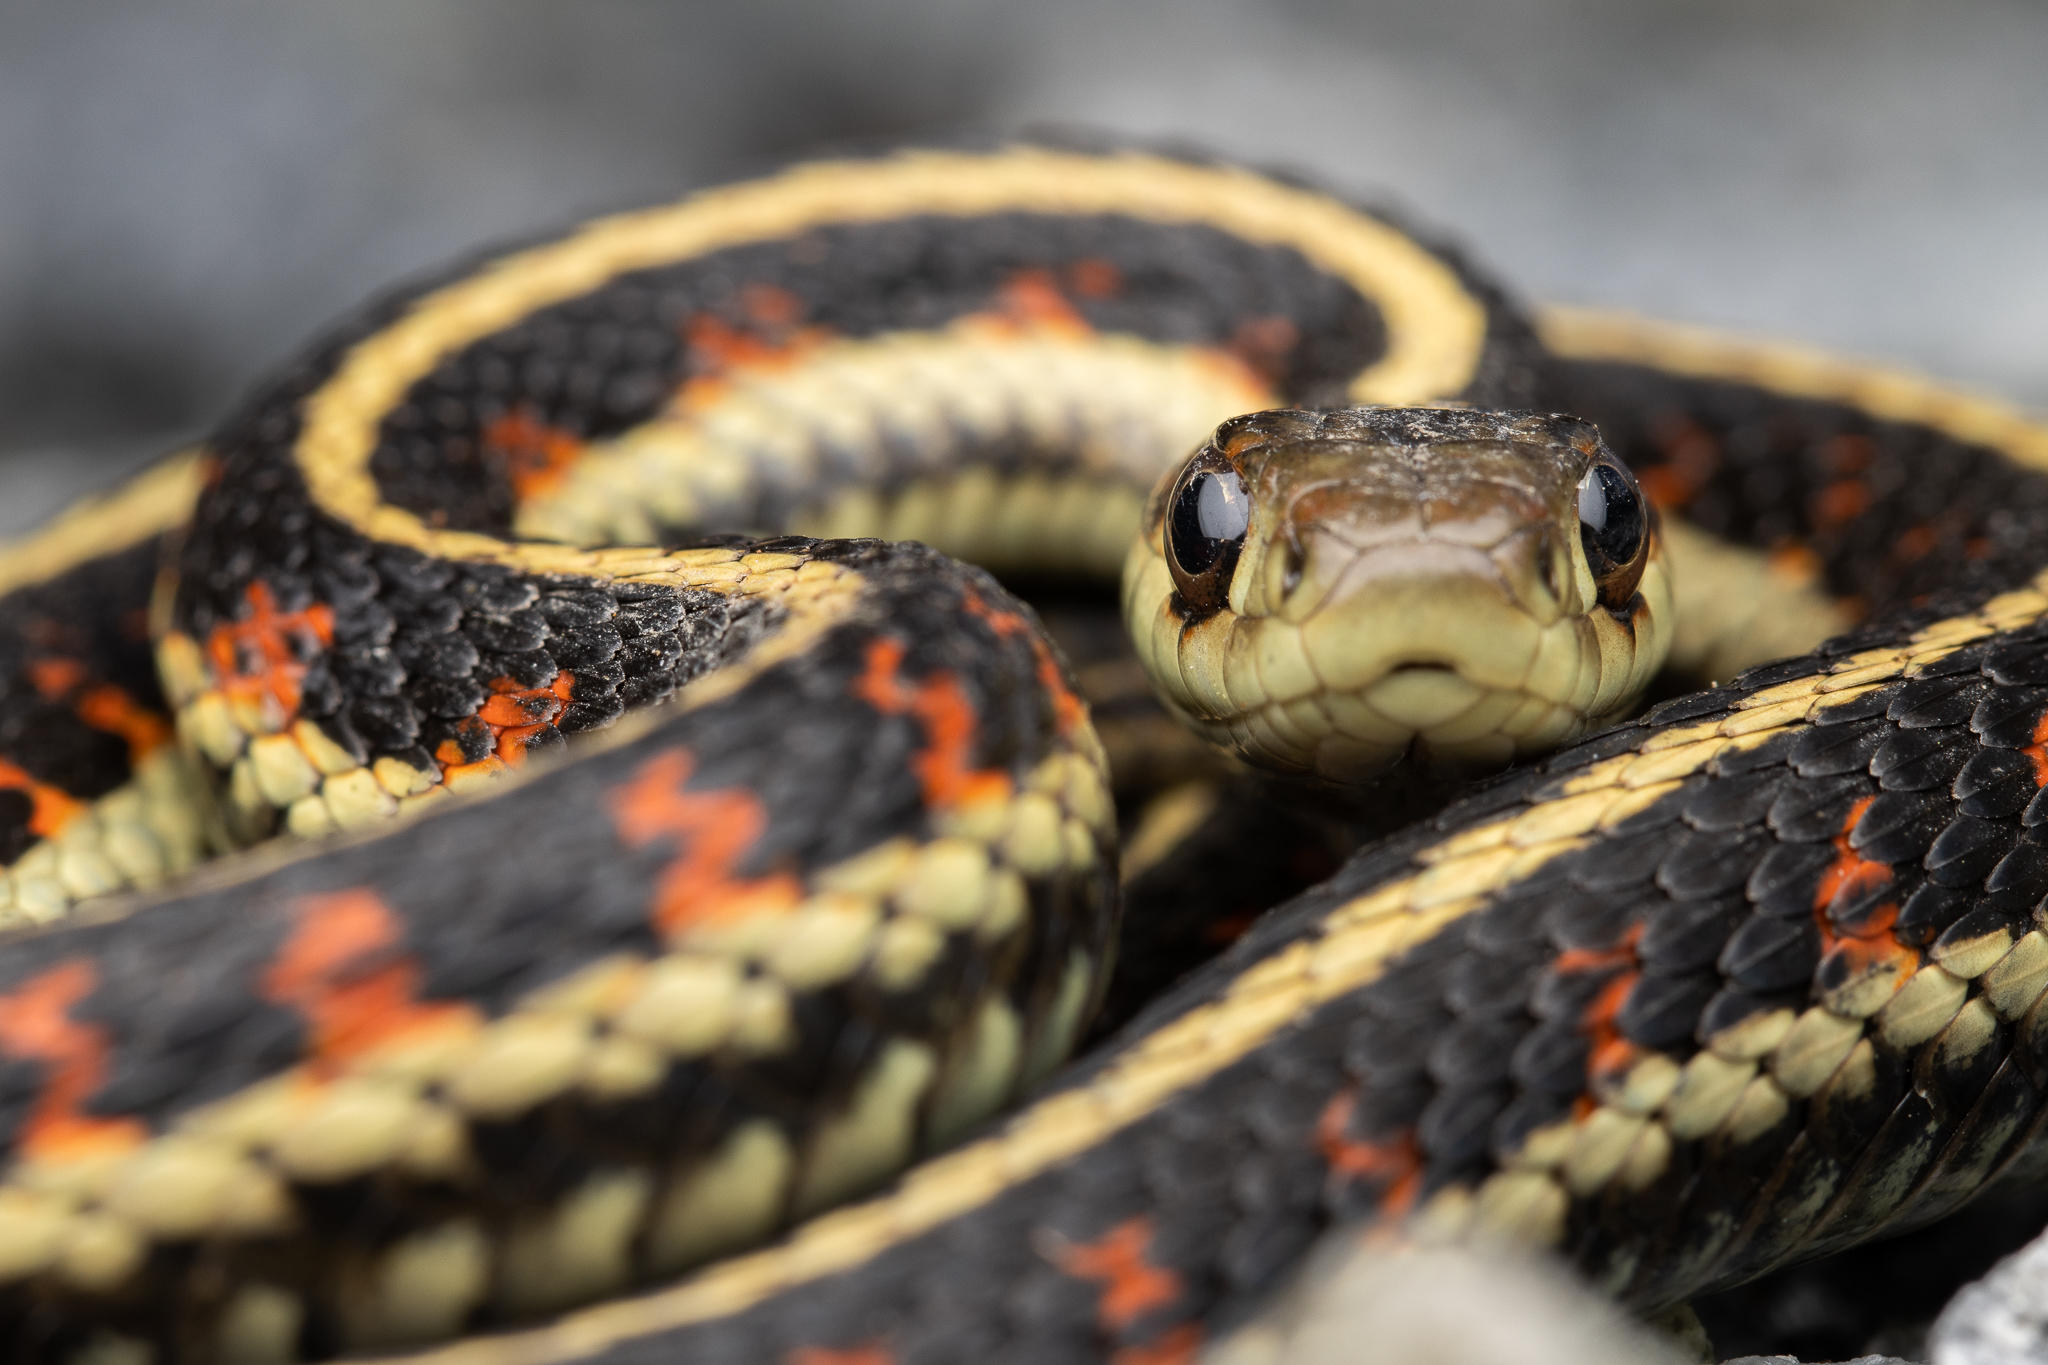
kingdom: Animalia
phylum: Chordata
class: Squamata
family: Colubridae
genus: Thamnophis
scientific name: Thamnophis sirtalis
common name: Common garter snake
